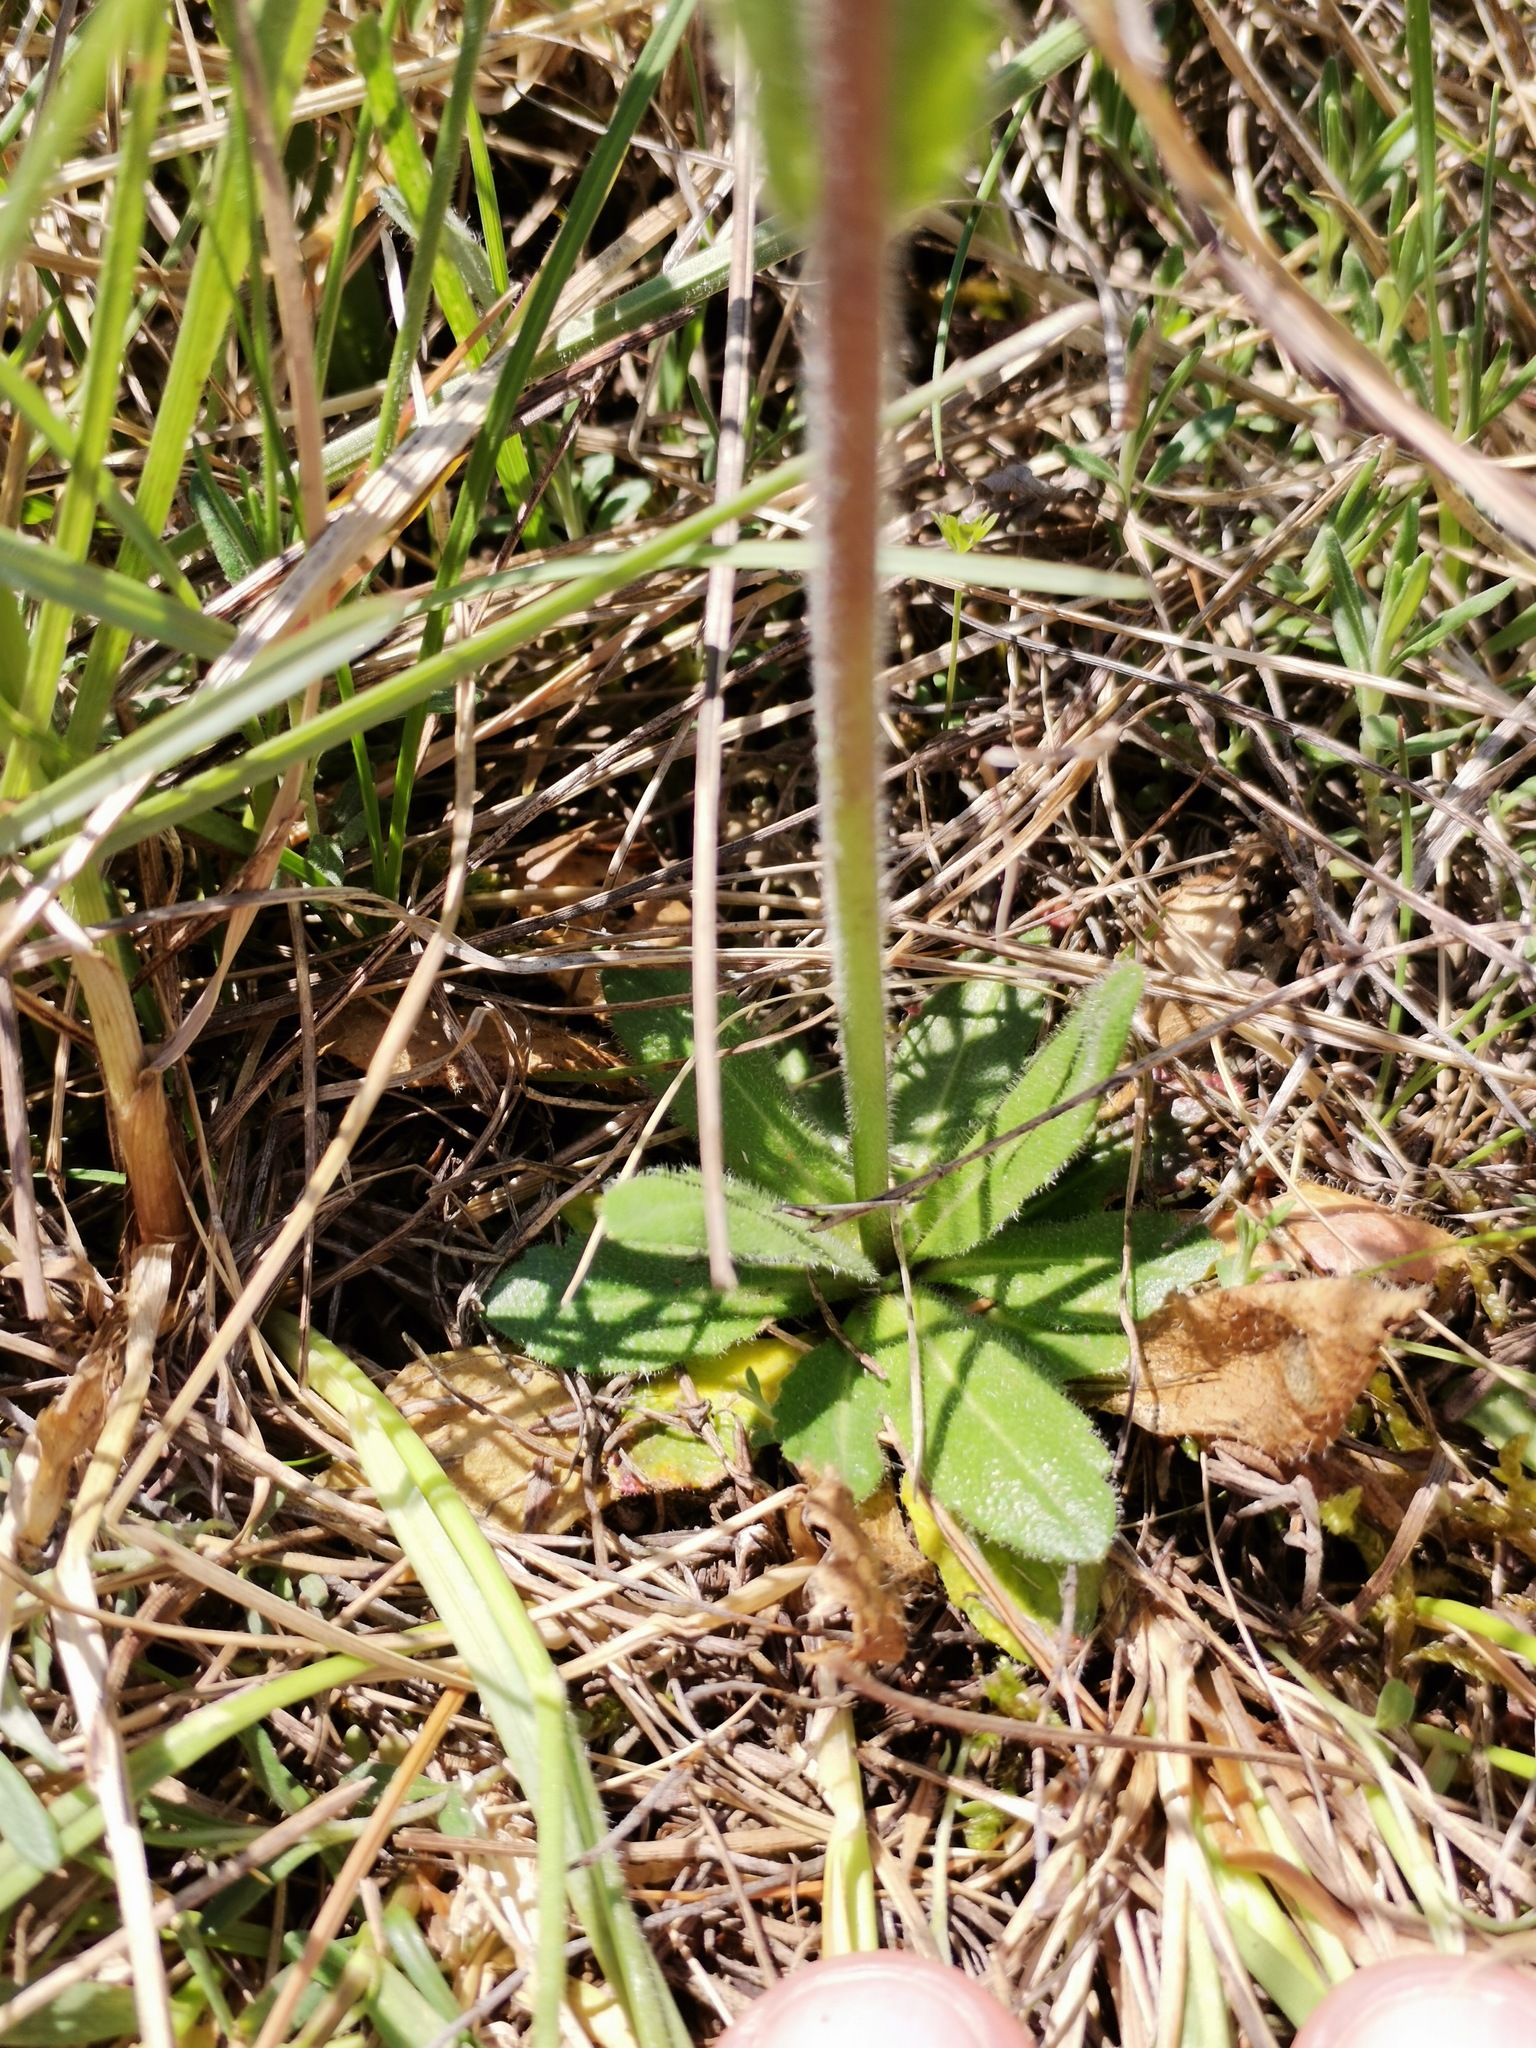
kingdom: Plantae
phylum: Tracheophyta
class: Magnoliopsida
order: Brassicales
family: Brassicaceae
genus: Arabis
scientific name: Arabis hirsuta
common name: Hairy rock-cress
